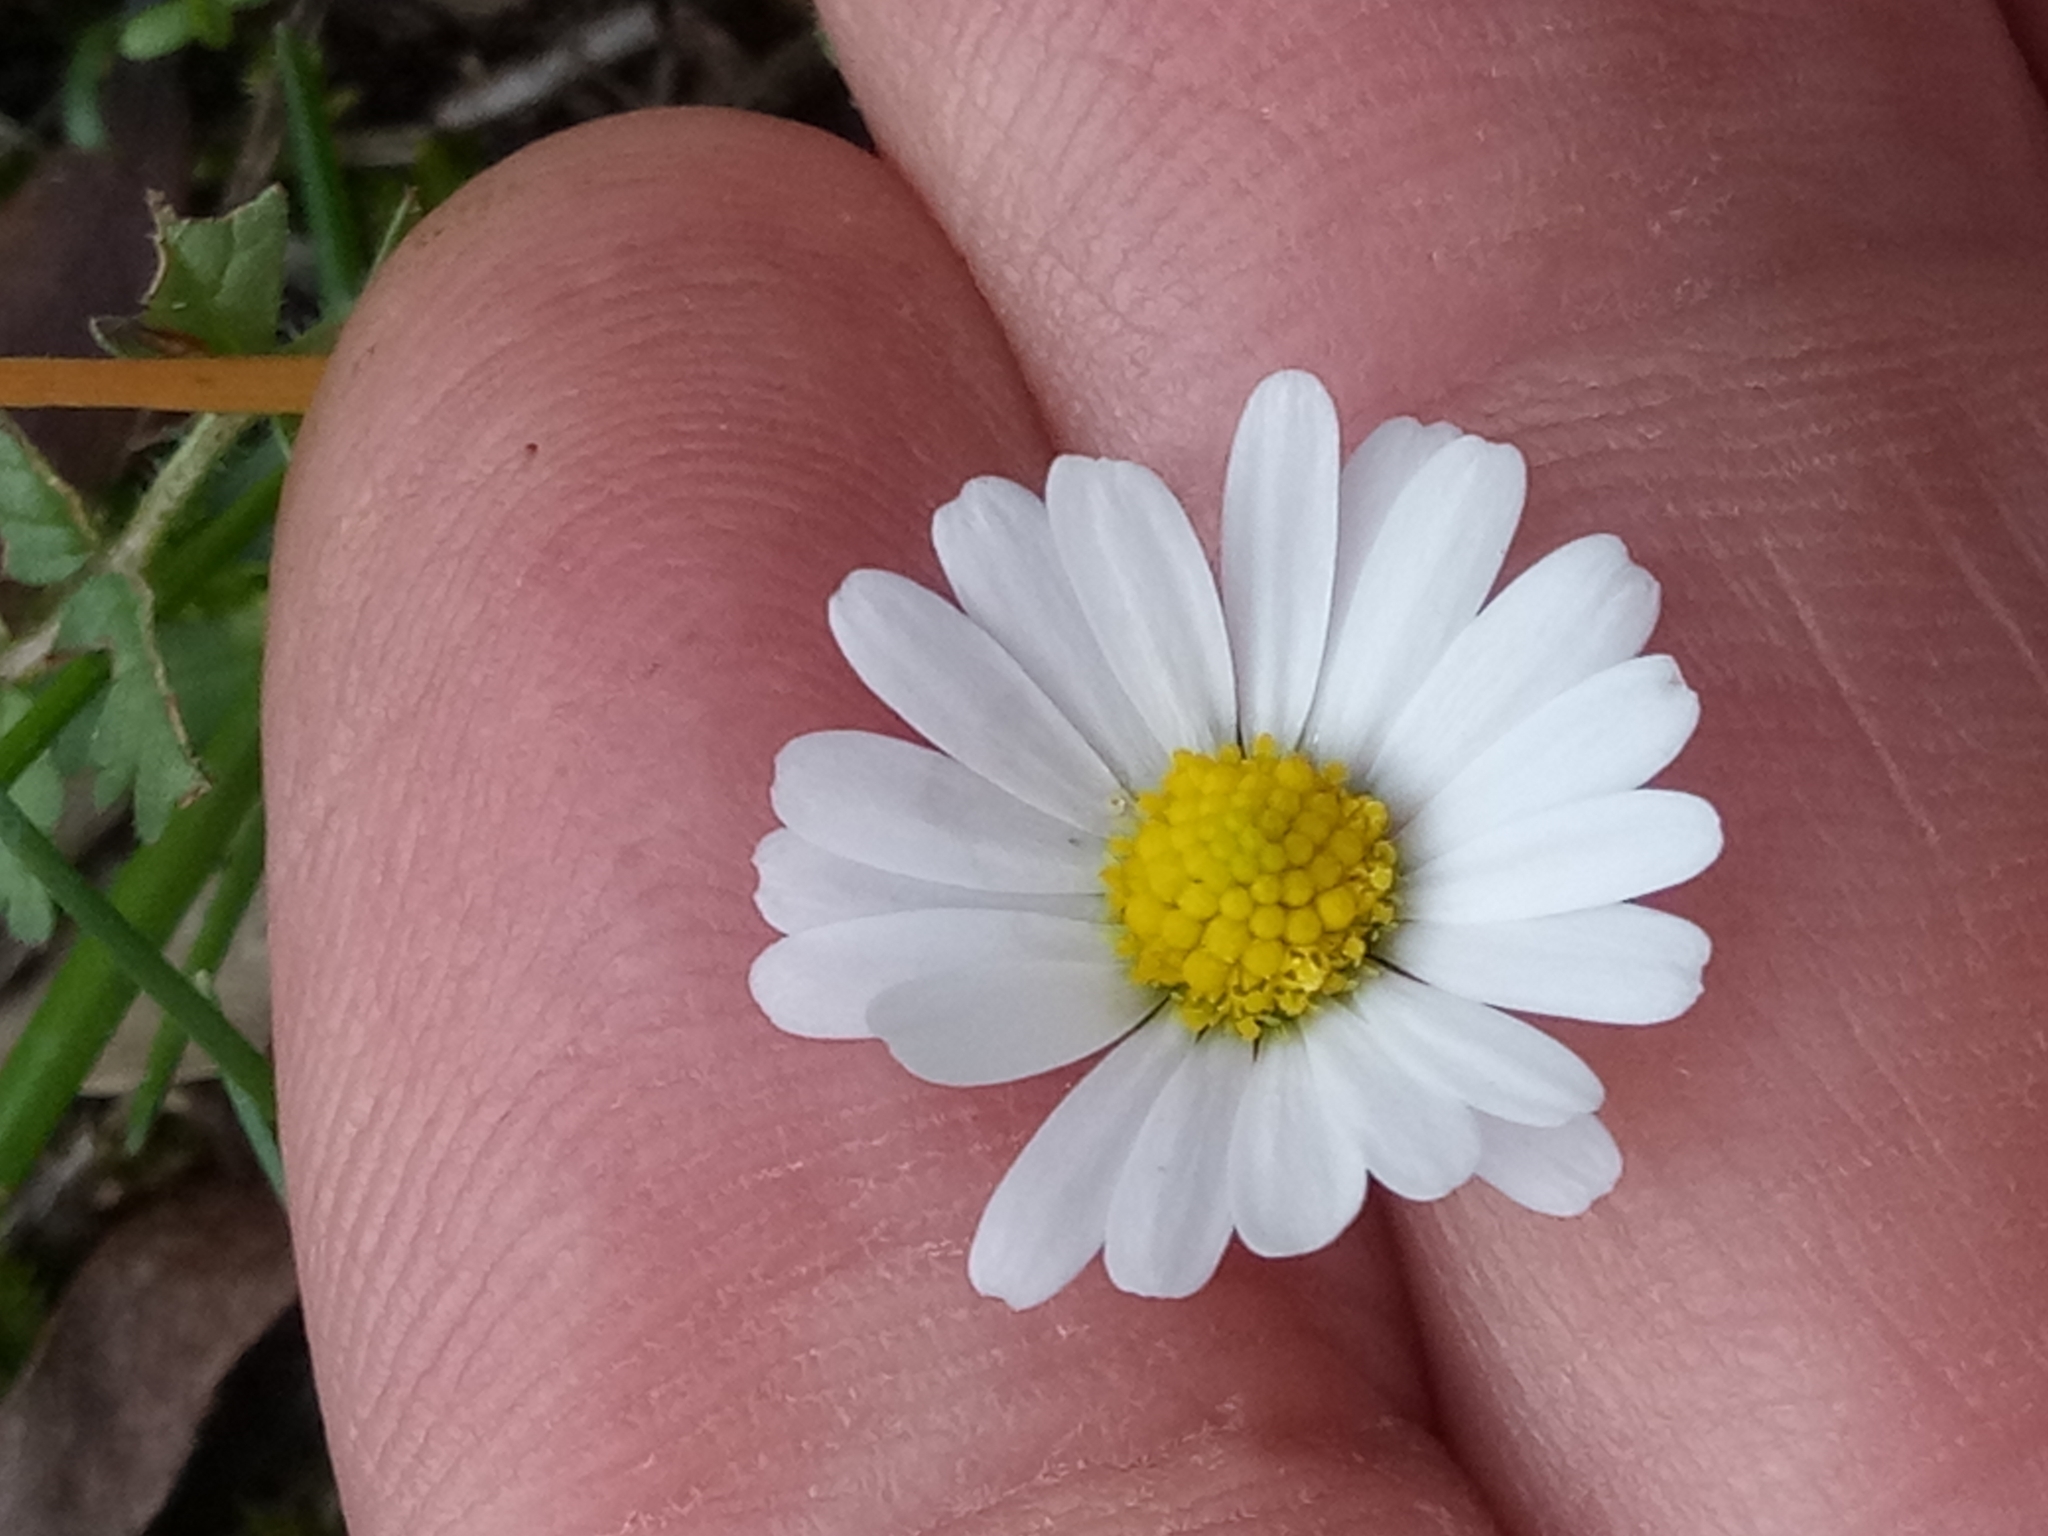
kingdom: Plantae
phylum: Tracheophyta
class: Magnoliopsida
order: Asterales
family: Asteraceae
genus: Bellis
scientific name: Bellis annua
